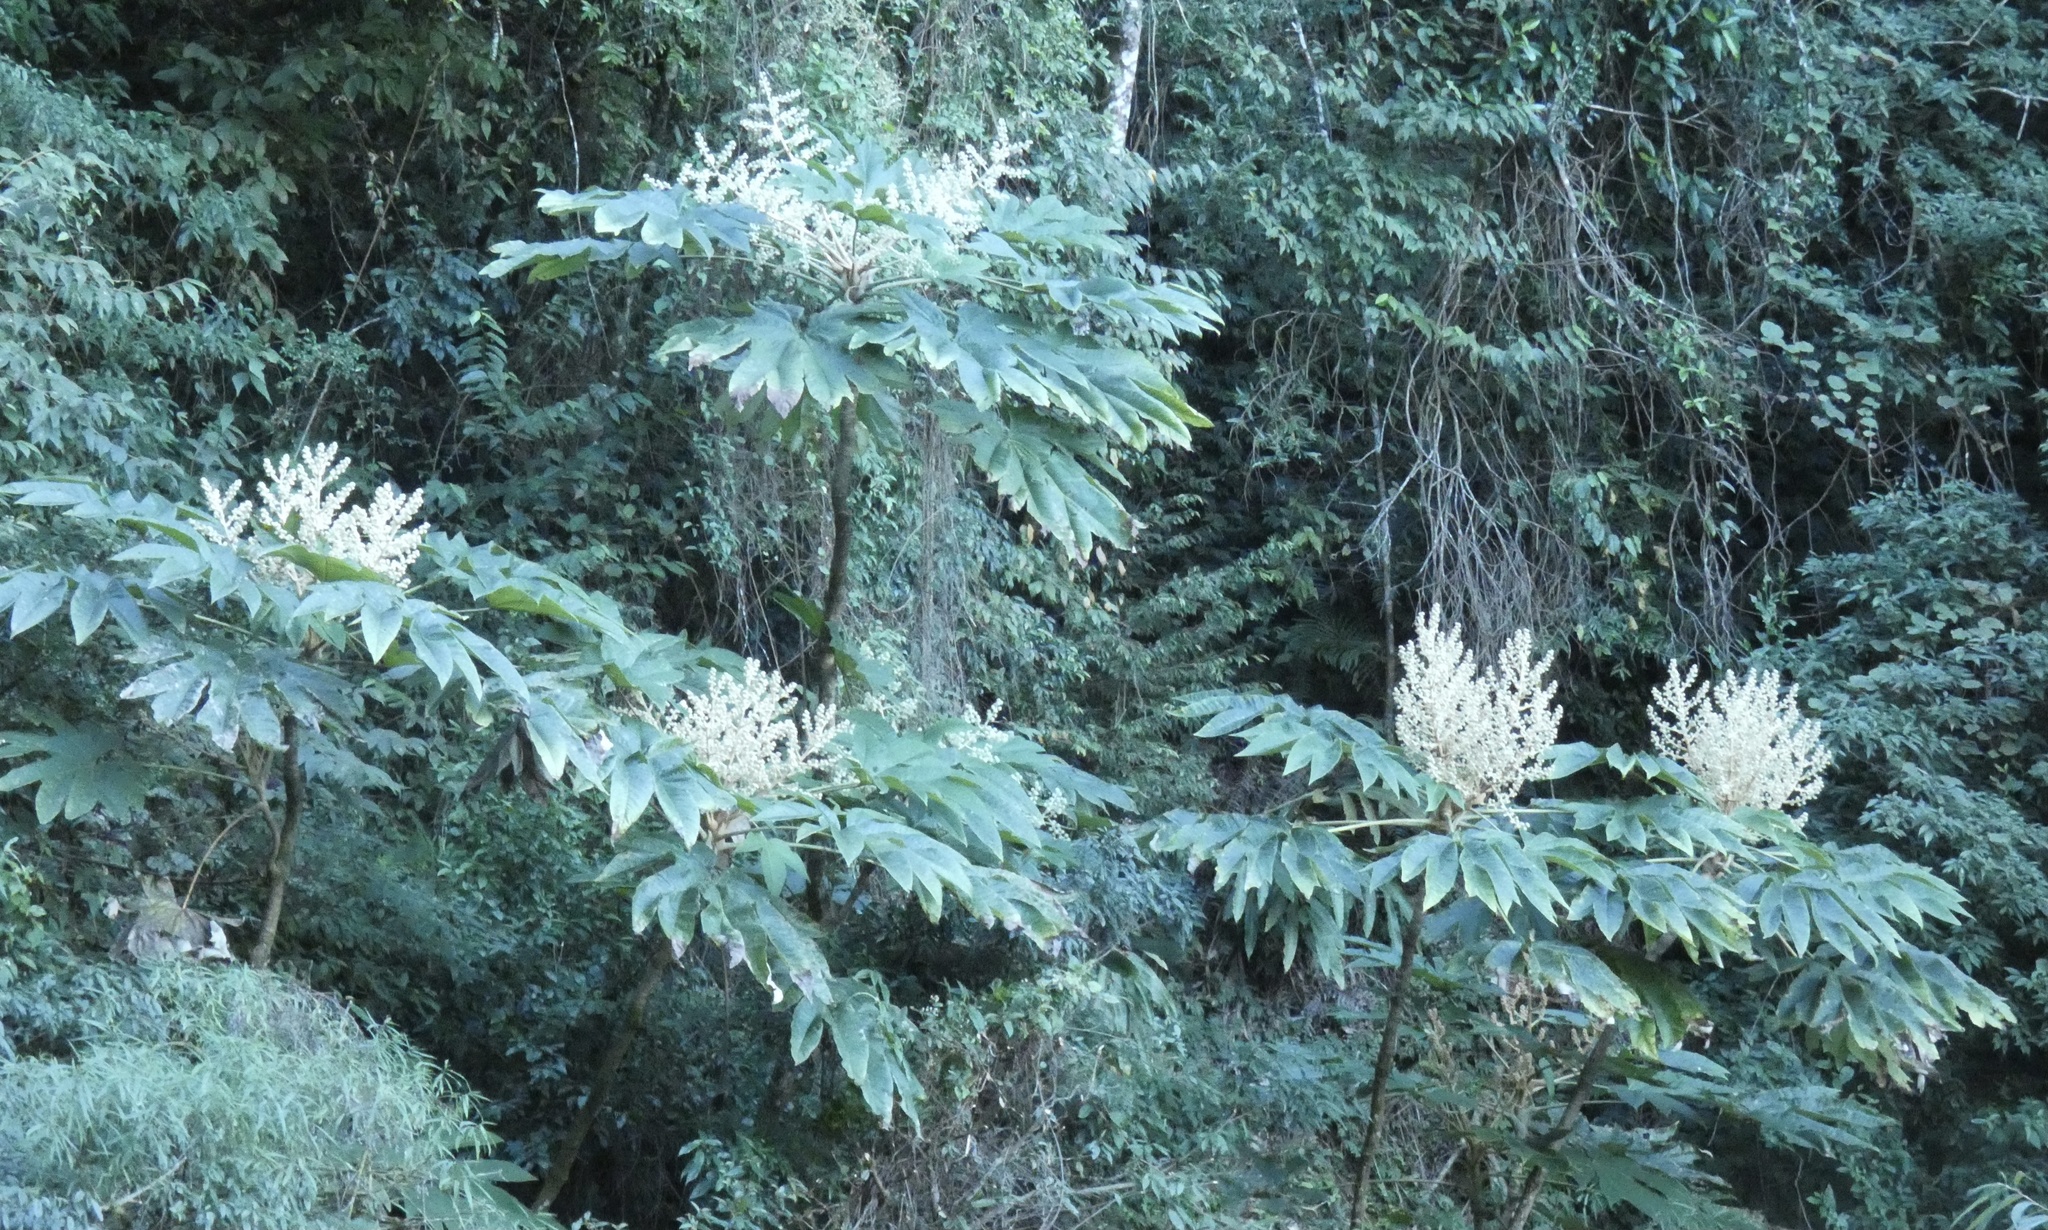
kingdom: Plantae
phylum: Tracheophyta
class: Magnoliopsida
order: Apiales
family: Araliaceae
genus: Tetrapanax
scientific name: Tetrapanax papyrifer
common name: Rice-paper plant
